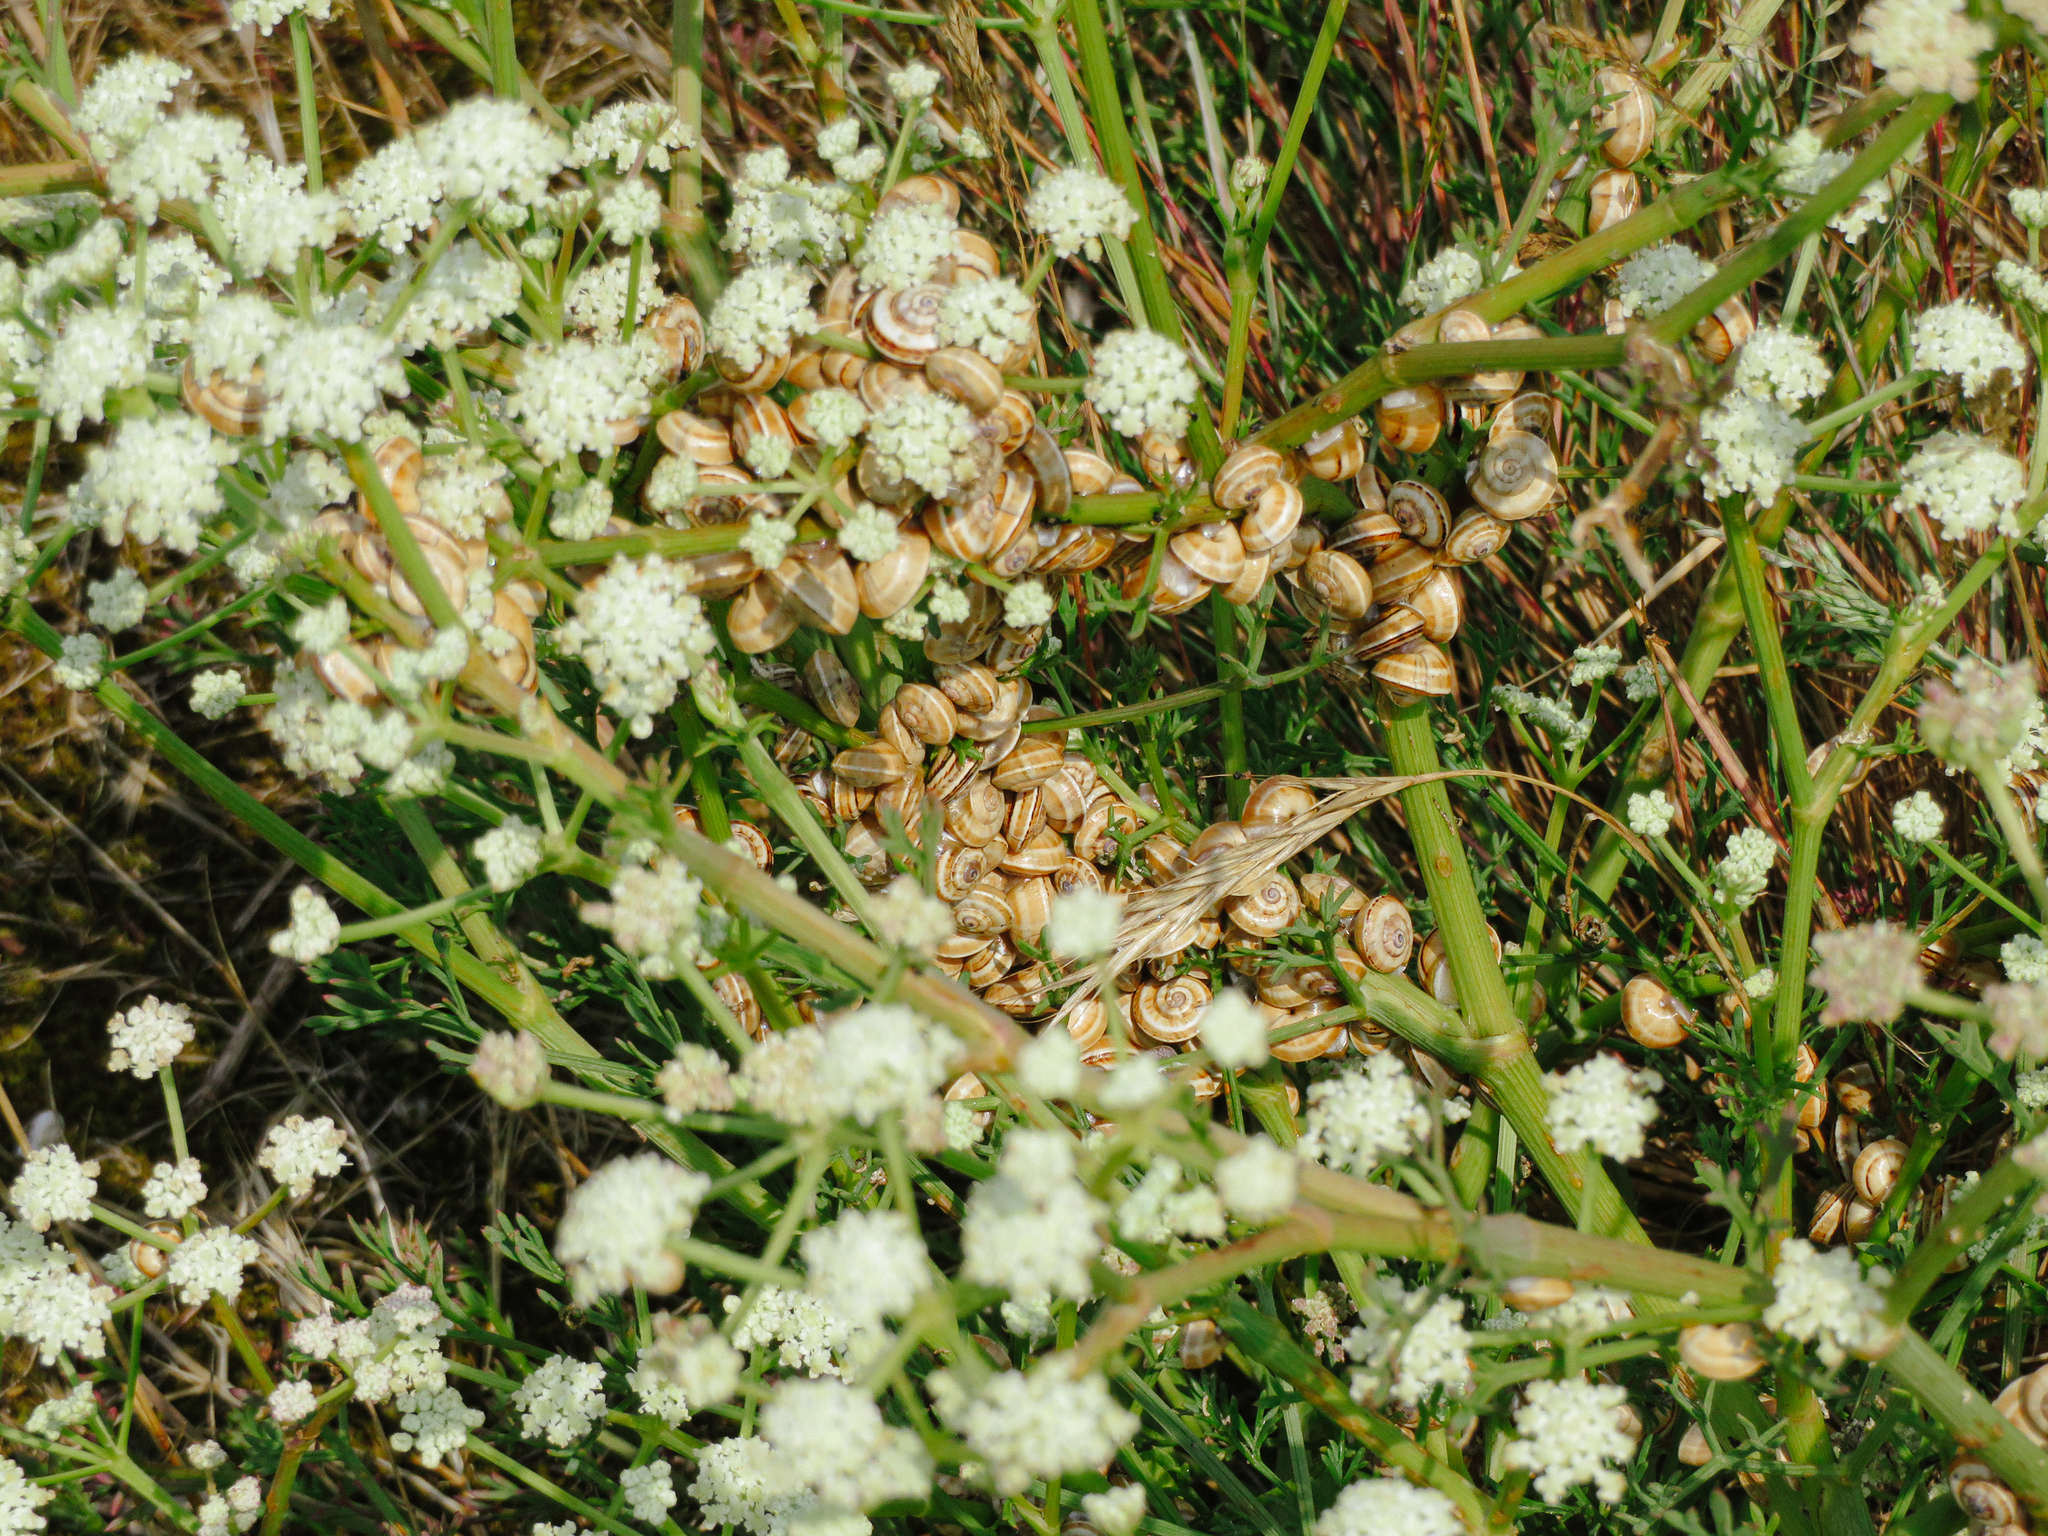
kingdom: Animalia
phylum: Mollusca
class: Gastropoda
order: Stylommatophora
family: Helicidae
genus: Theba
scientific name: Theba pisana
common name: White snail
